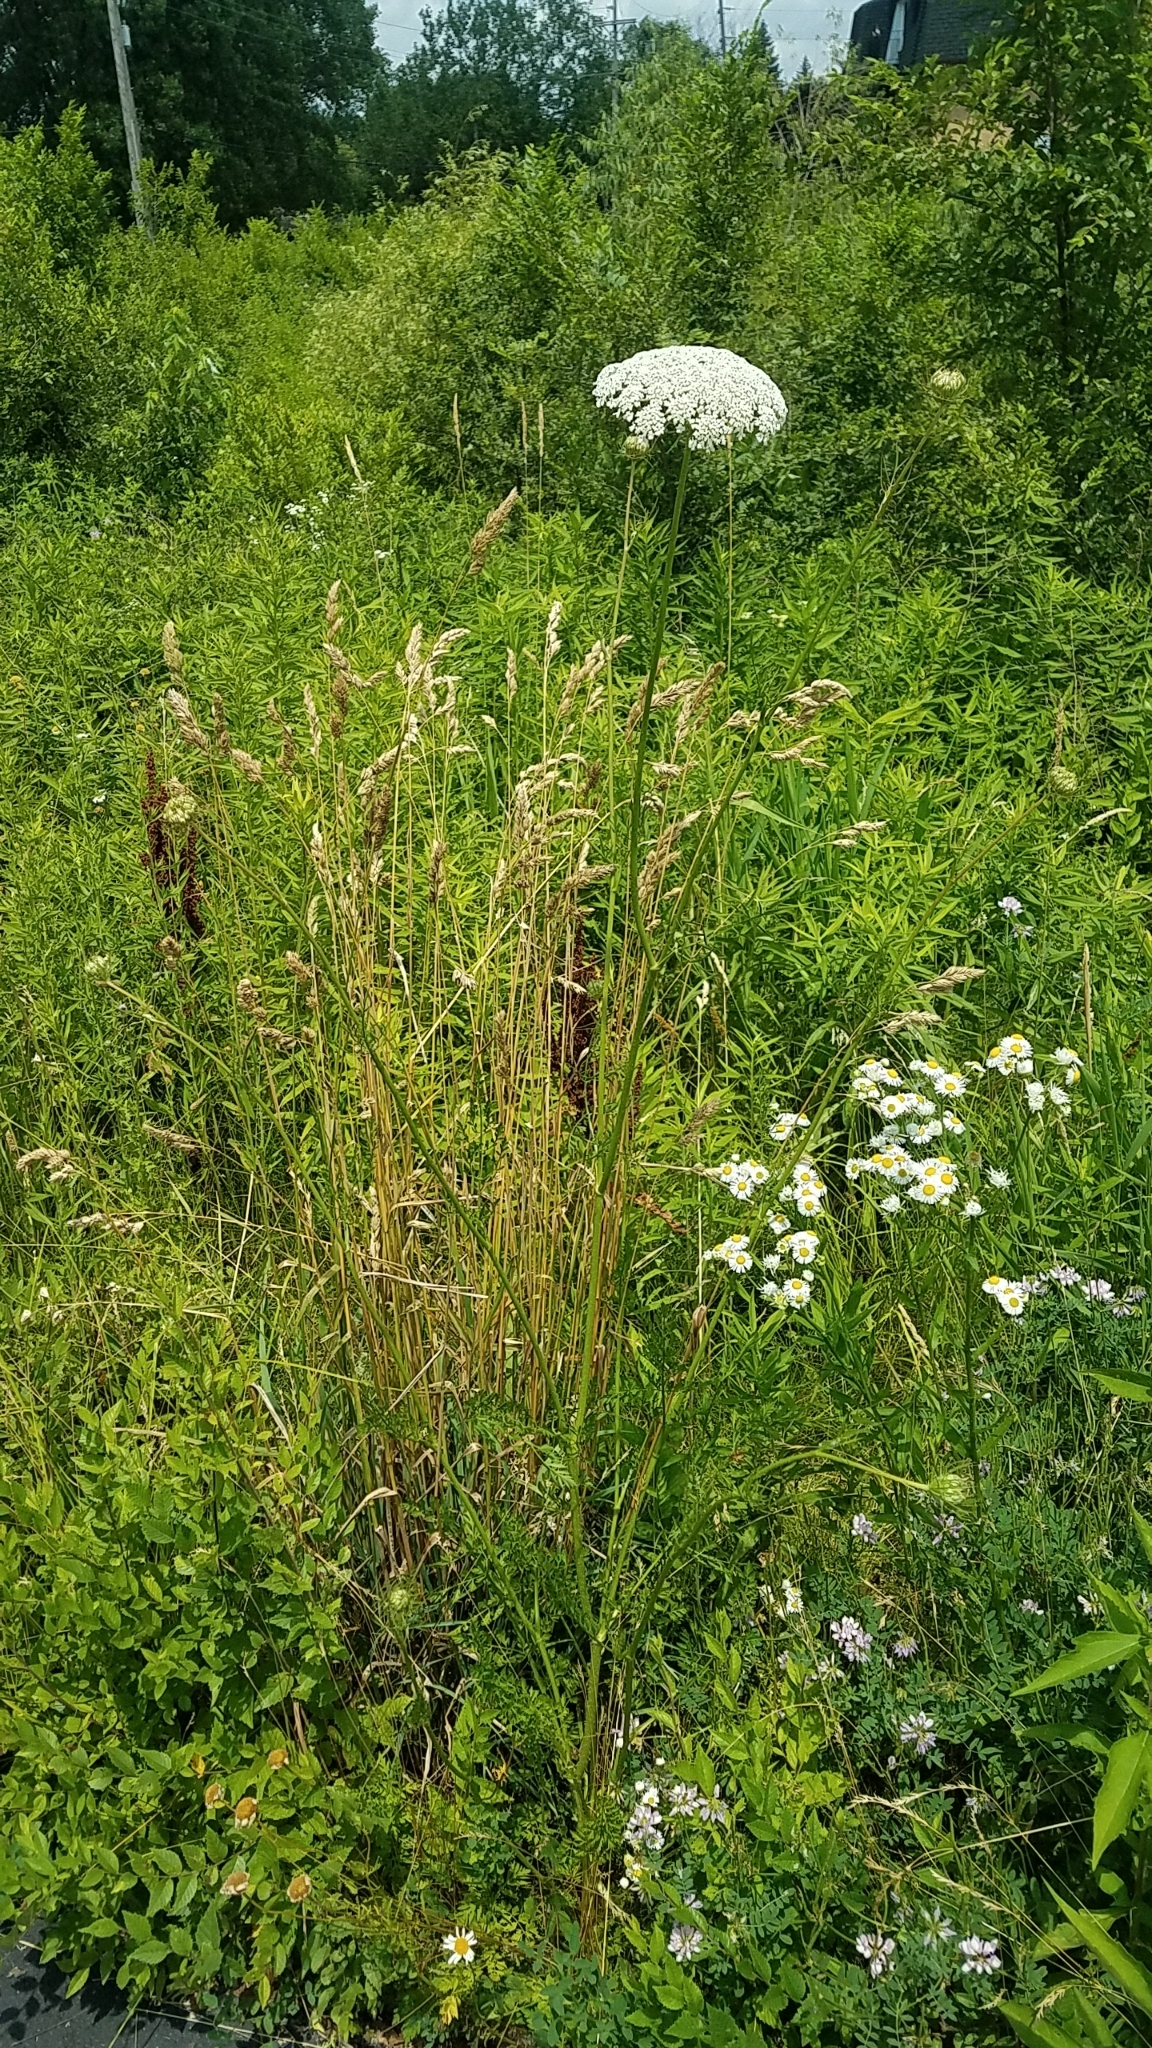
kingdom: Plantae
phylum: Tracheophyta
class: Magnoliopsida
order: Apiales
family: Apiaceae
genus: Daucus
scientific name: Daucus carota
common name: Wild carrot
